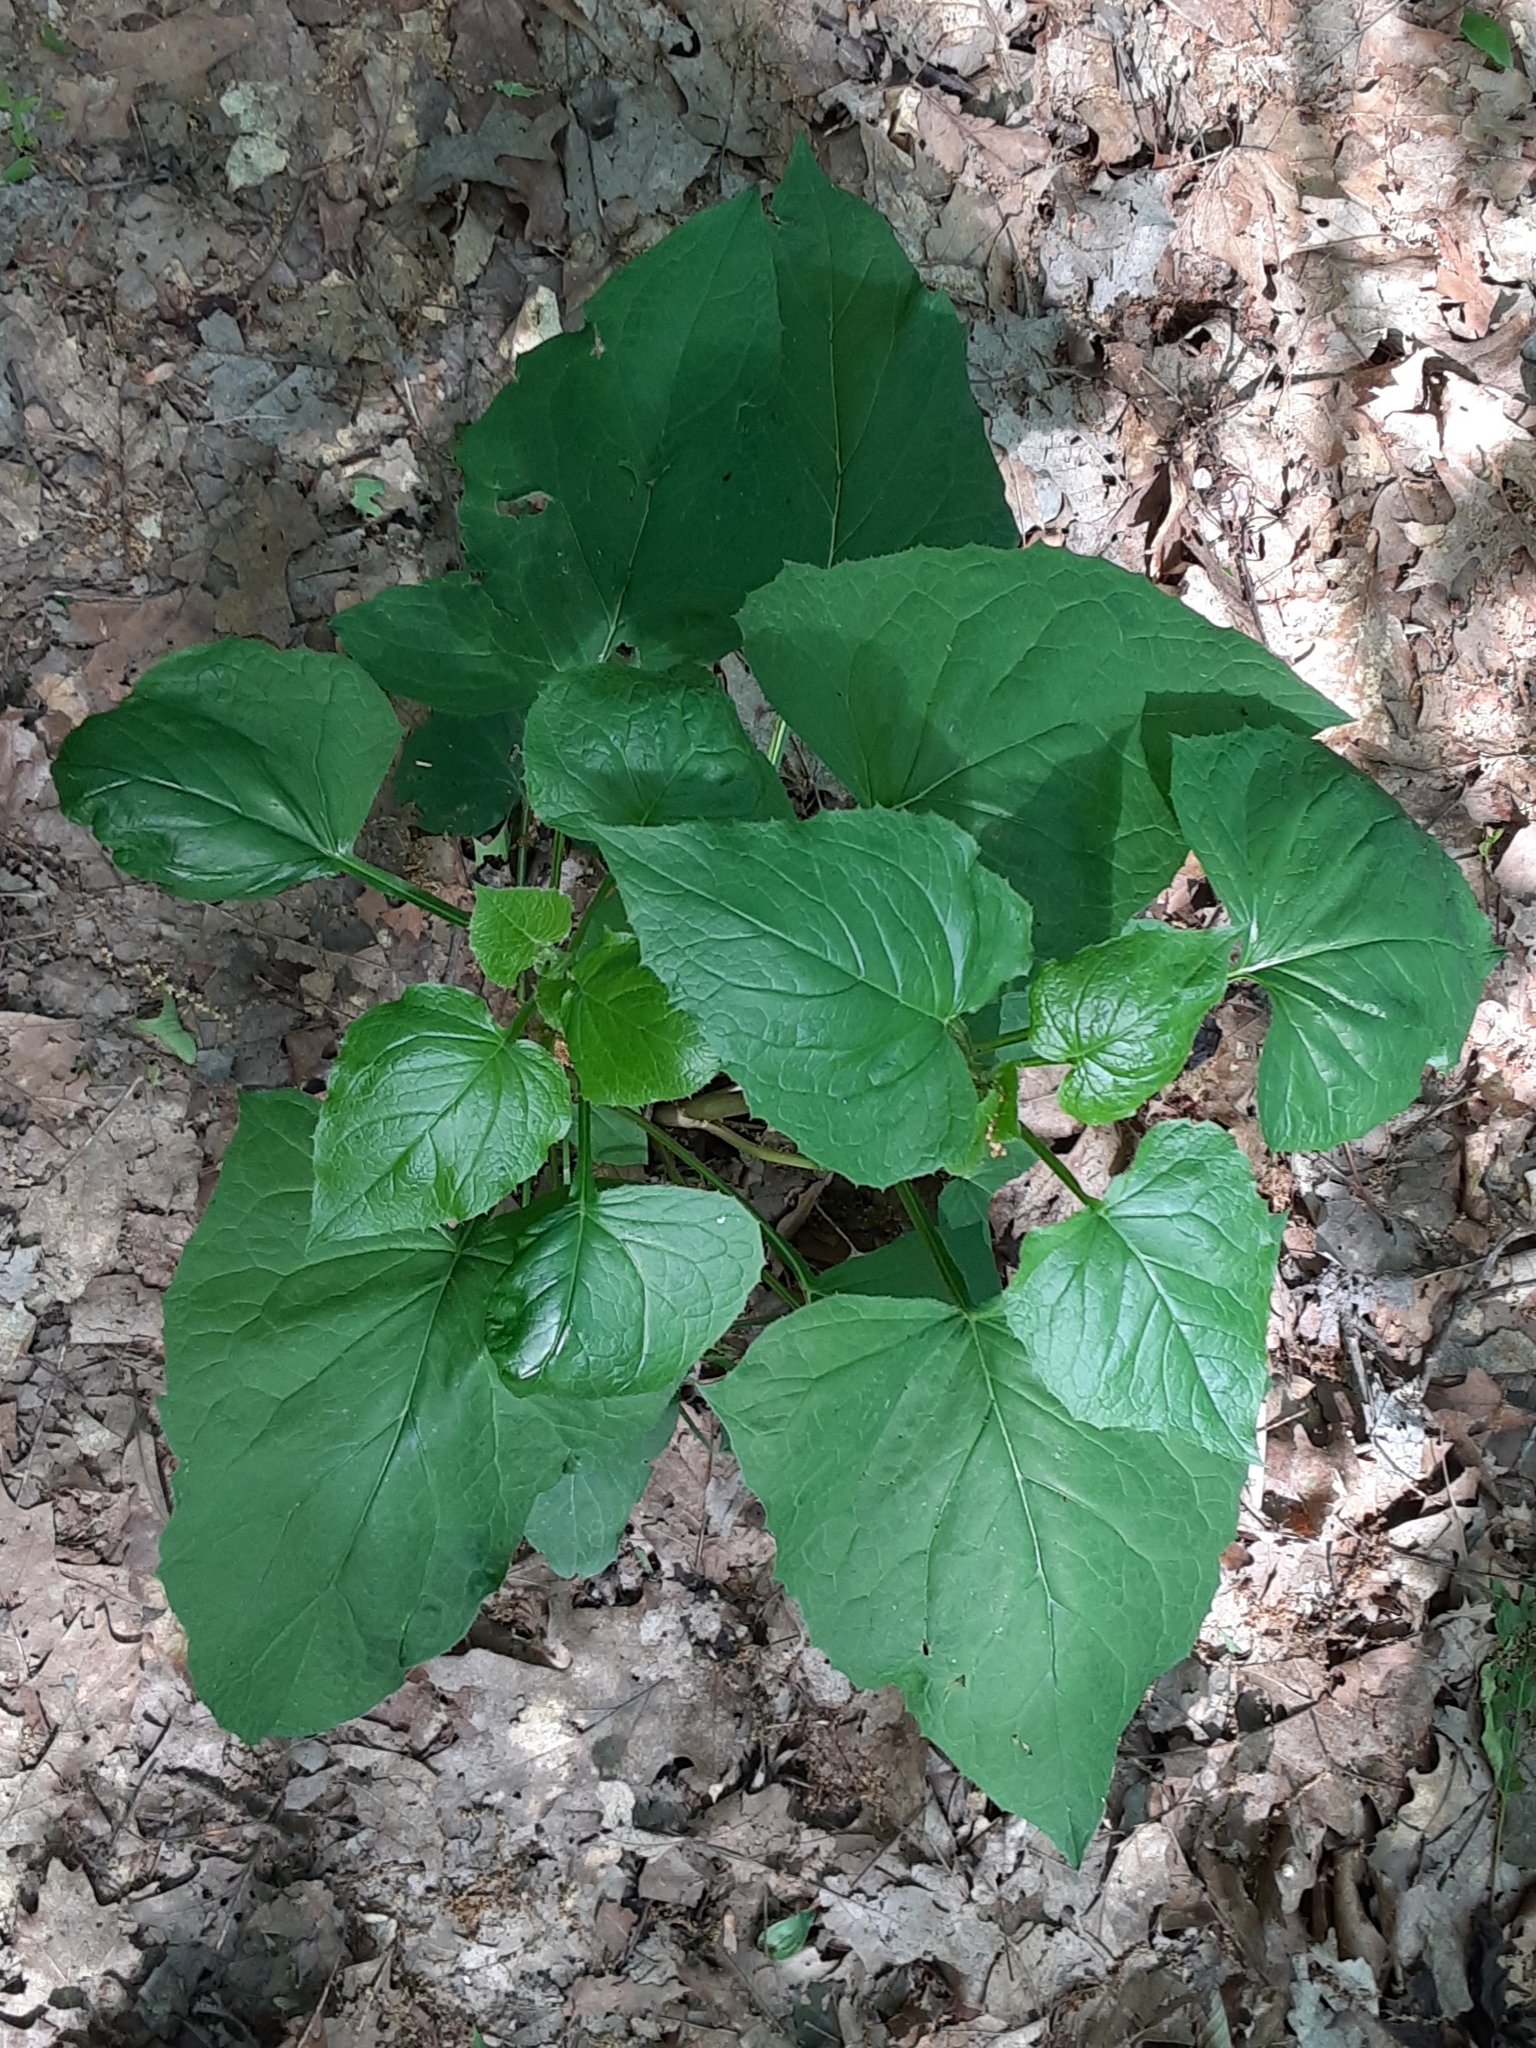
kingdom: Plantae
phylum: Tracheophyta
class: Magnoliopsida
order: Asterales
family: Asteraceae
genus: Nabalus
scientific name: Nabalus
